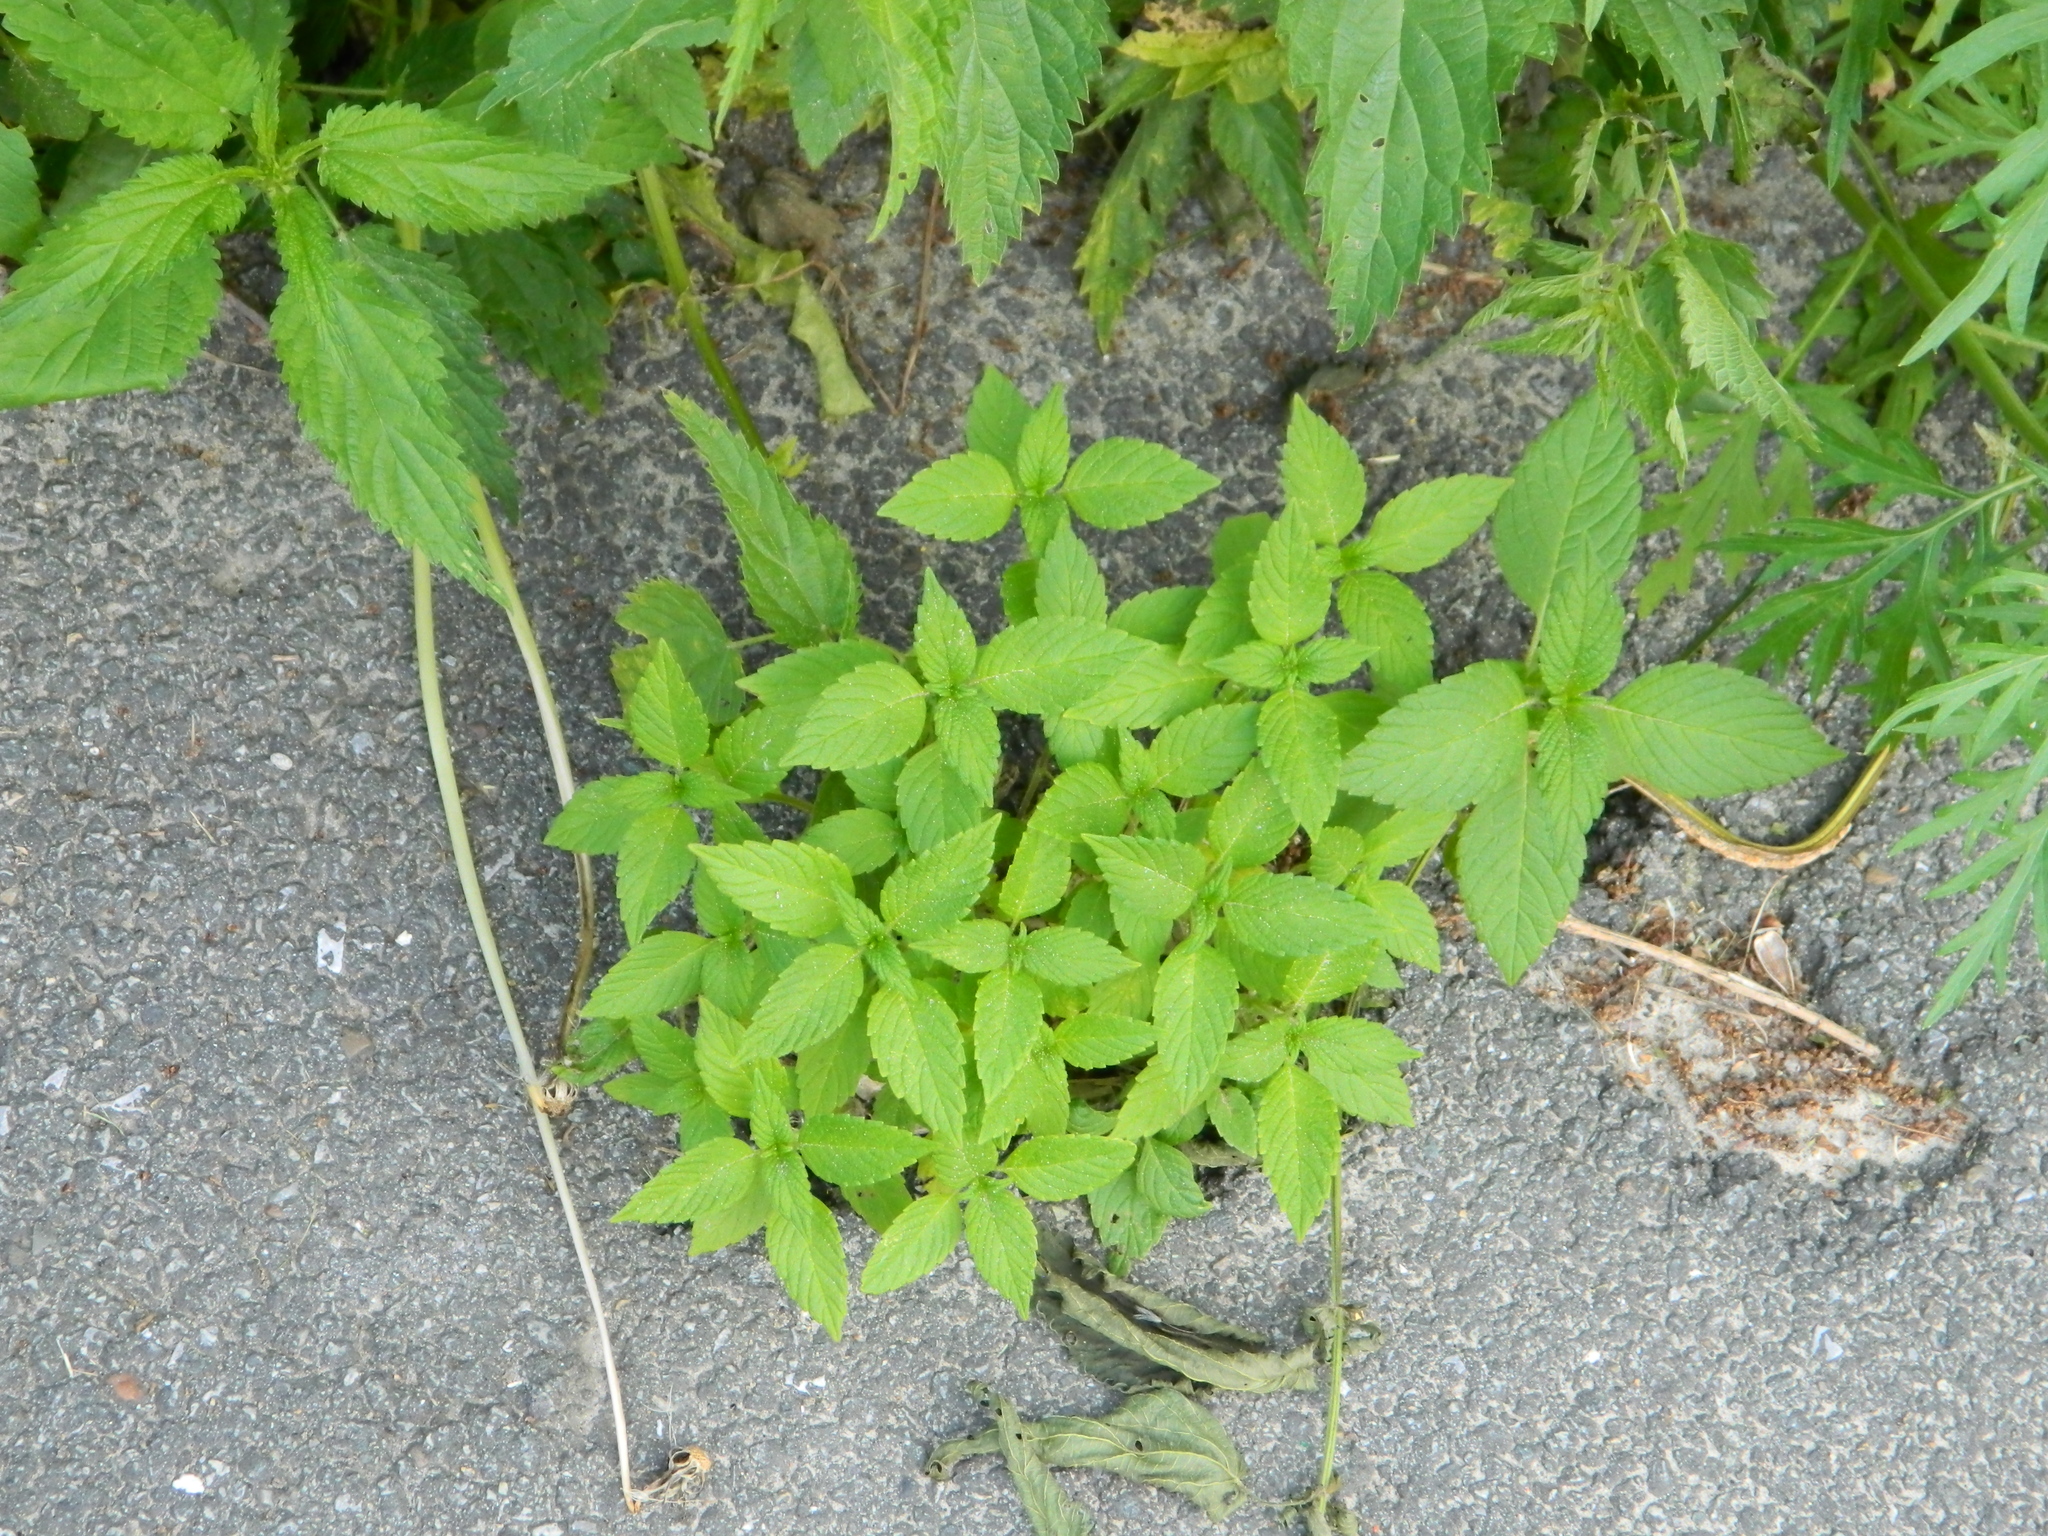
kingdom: Plantae
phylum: Tracheophyta
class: Magnoliopsida
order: Lamiales
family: Lamiaceae
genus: Galeopsis
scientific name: Galeopsis bifida
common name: Bifid hemp-nettle
